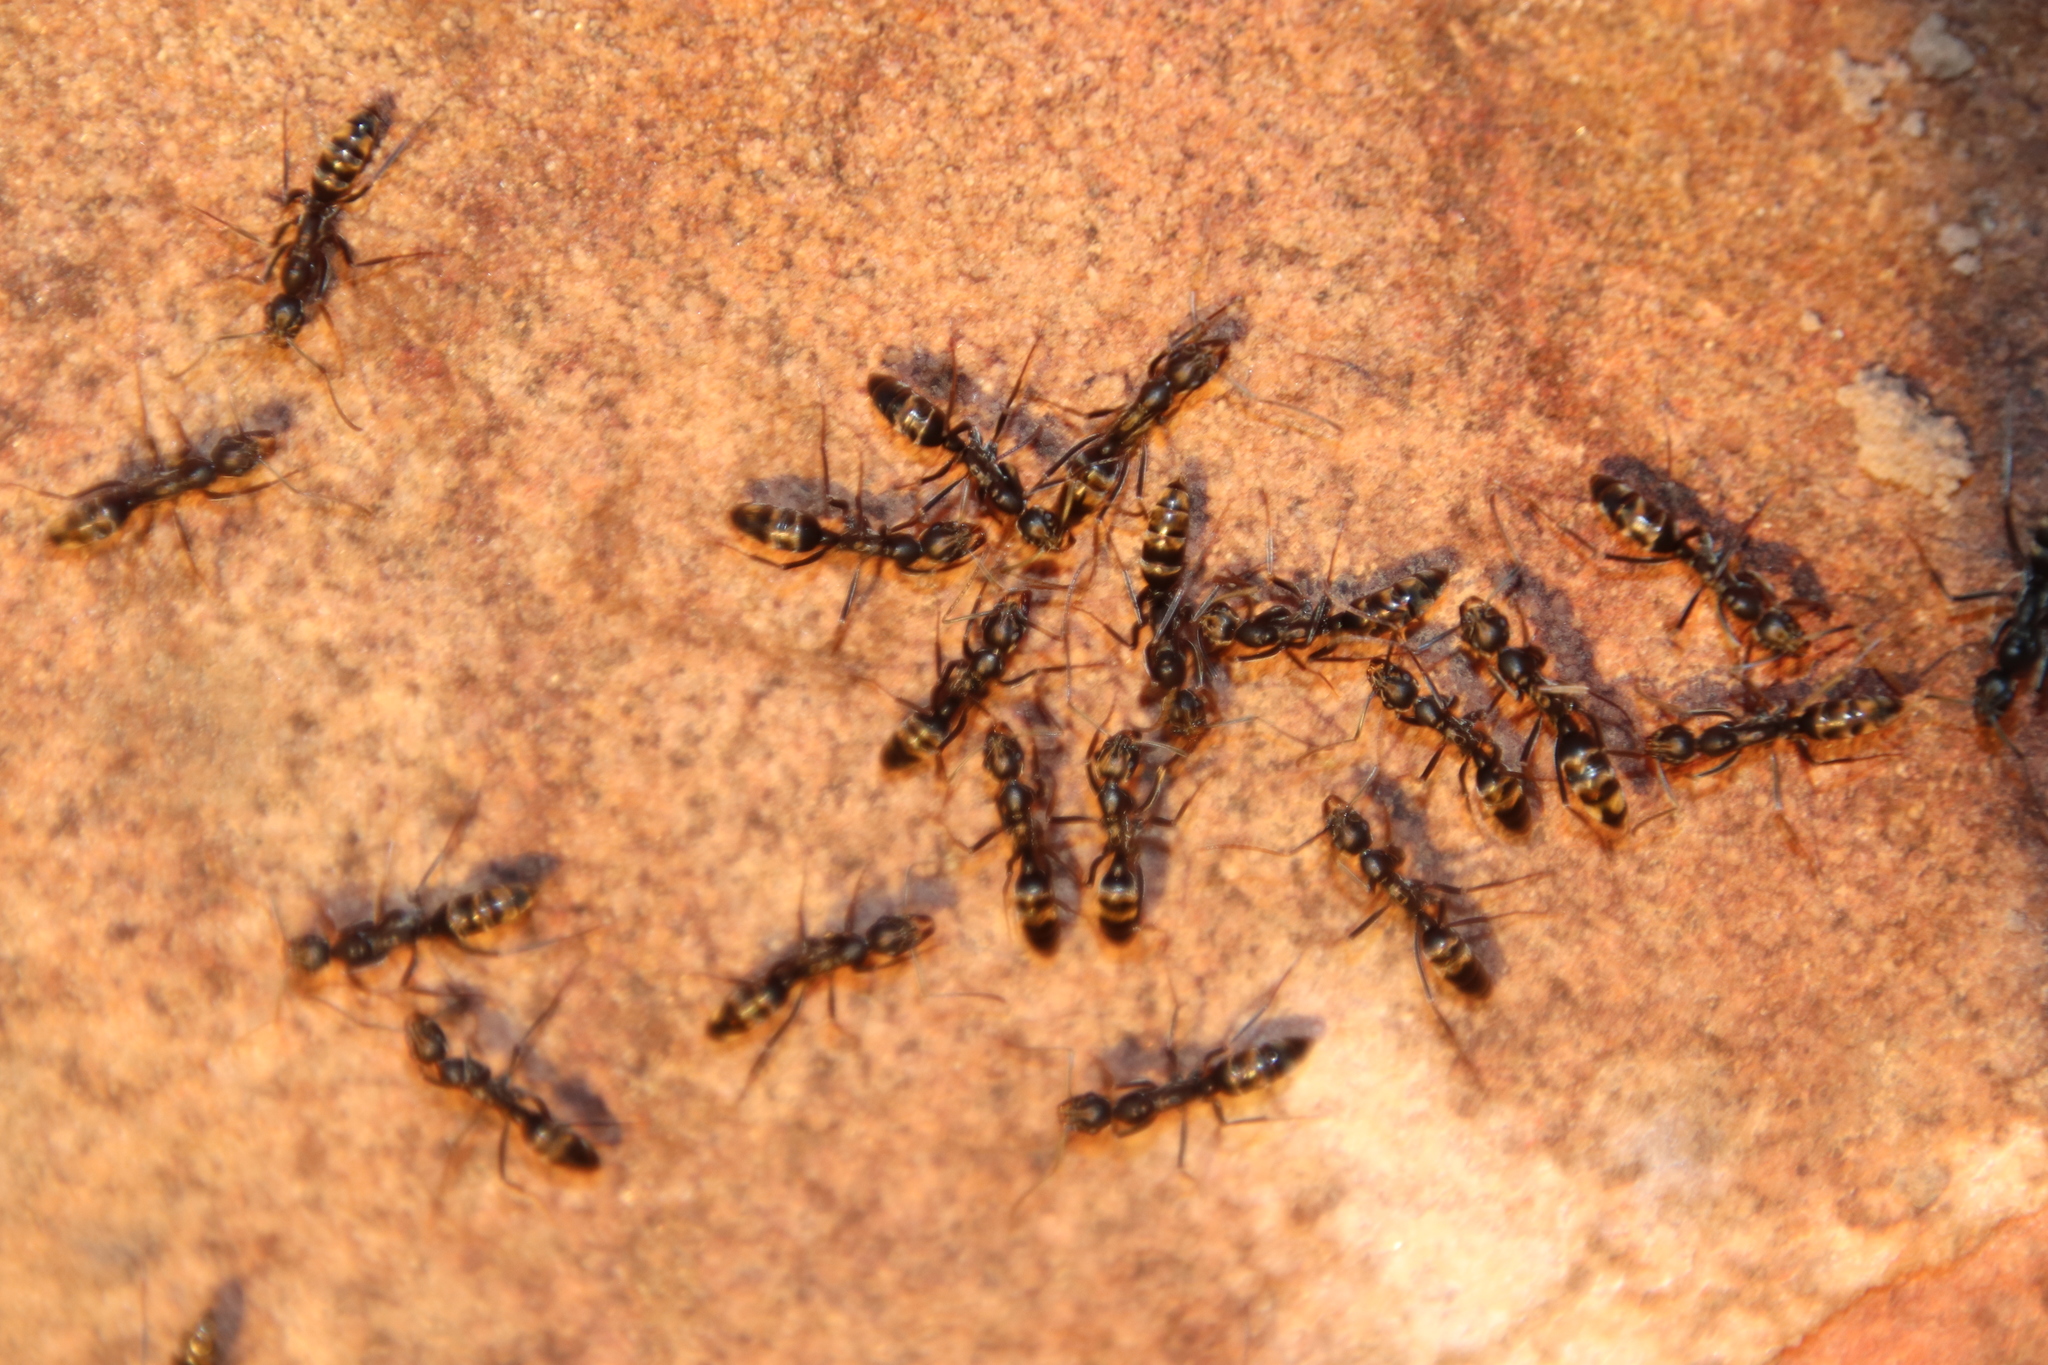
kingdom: Animalia
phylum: Arthropoda
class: Insecta
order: Hymenoptera
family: Formicidae
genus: Leptogenys
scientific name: Leptogenys mactans
